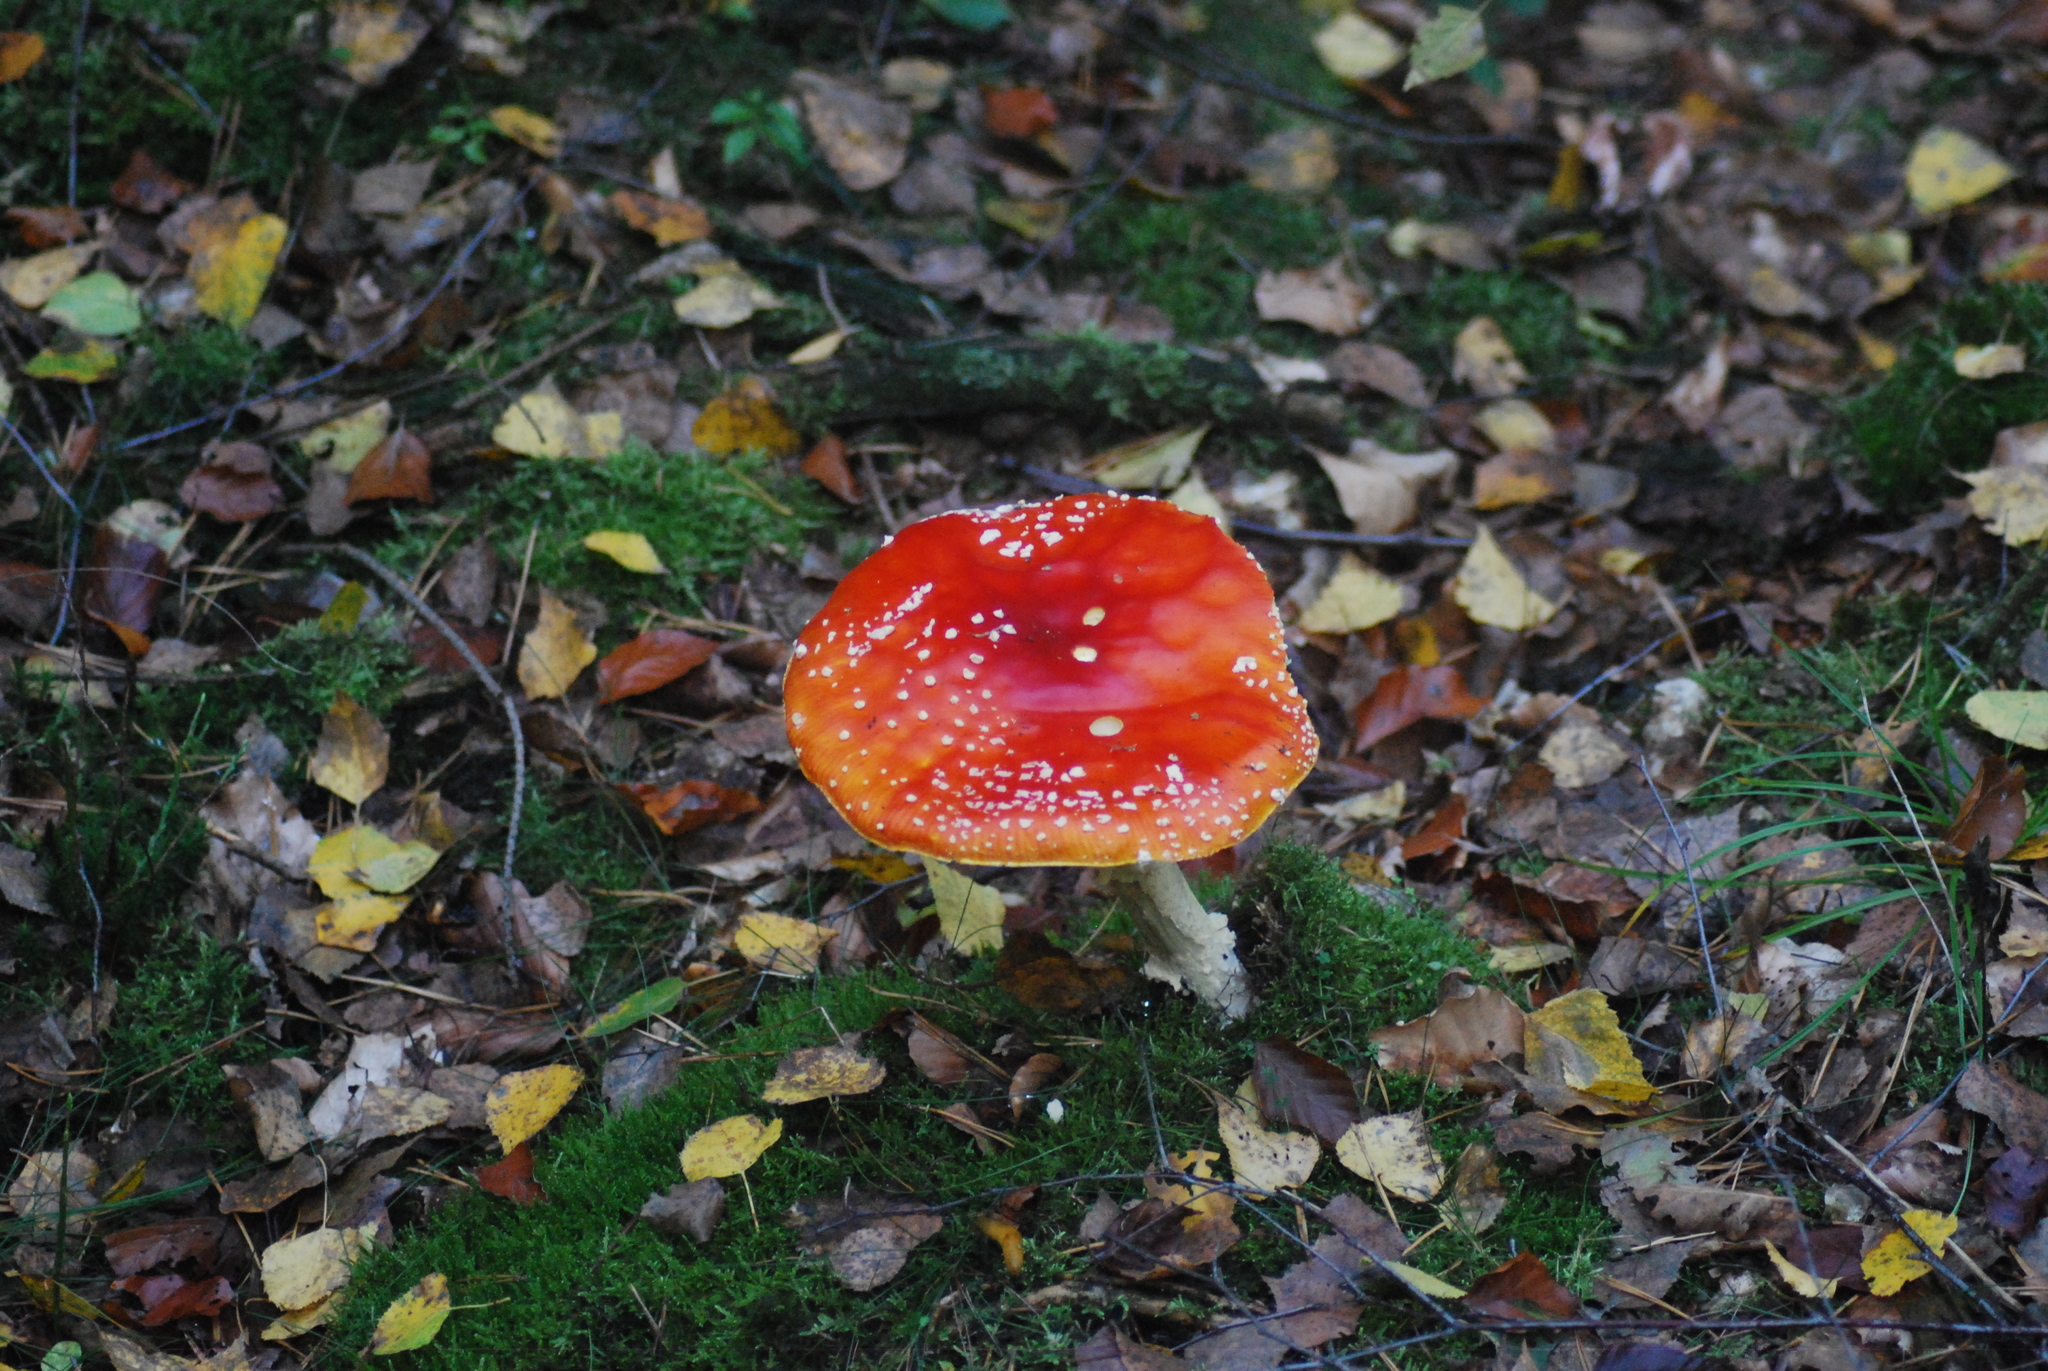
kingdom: Fungi
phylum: Basidiomycota
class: Agaricomycetes
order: Agaricales
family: Amanitaceae
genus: Amanita
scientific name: Amanita muscaria
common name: Fly agaric
